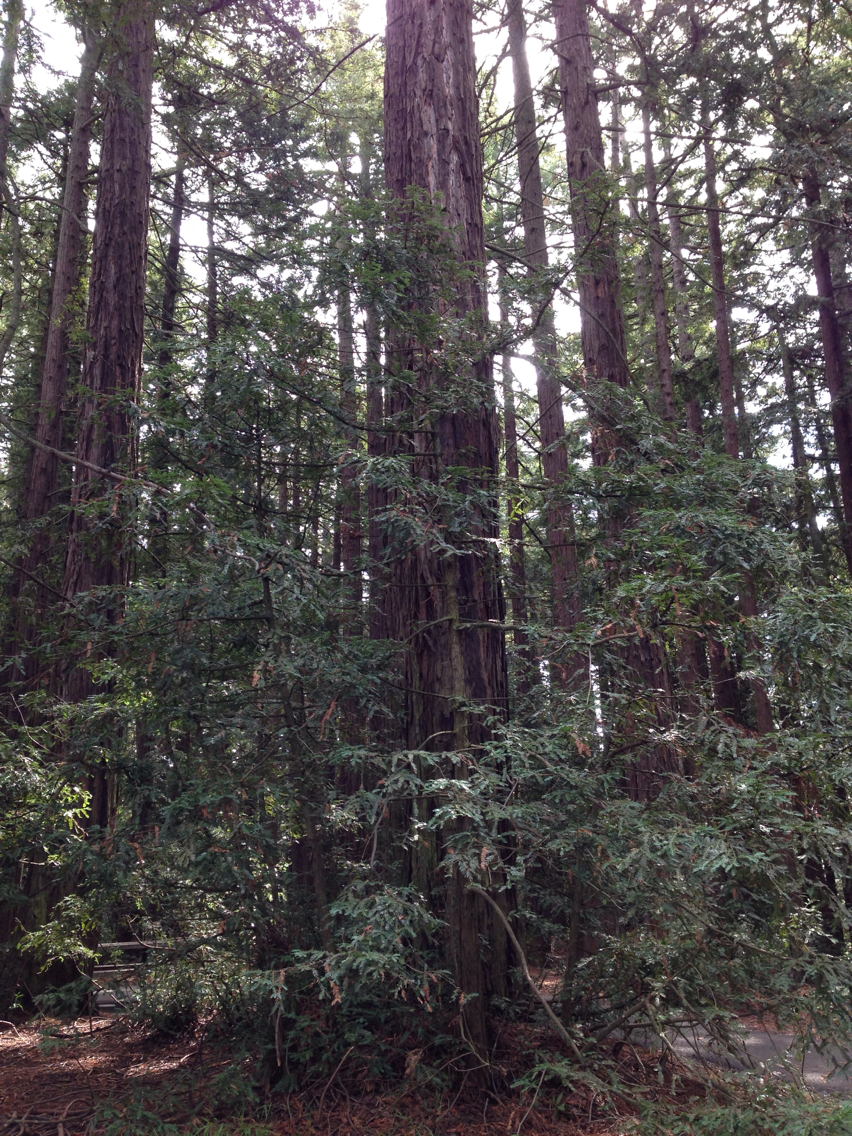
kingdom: Plantae
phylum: Tracheophyta
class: Pinopsida
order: Pinales
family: Cupressaceae
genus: Sequoia
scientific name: Sequoia sempervirens
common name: Coast redwood
